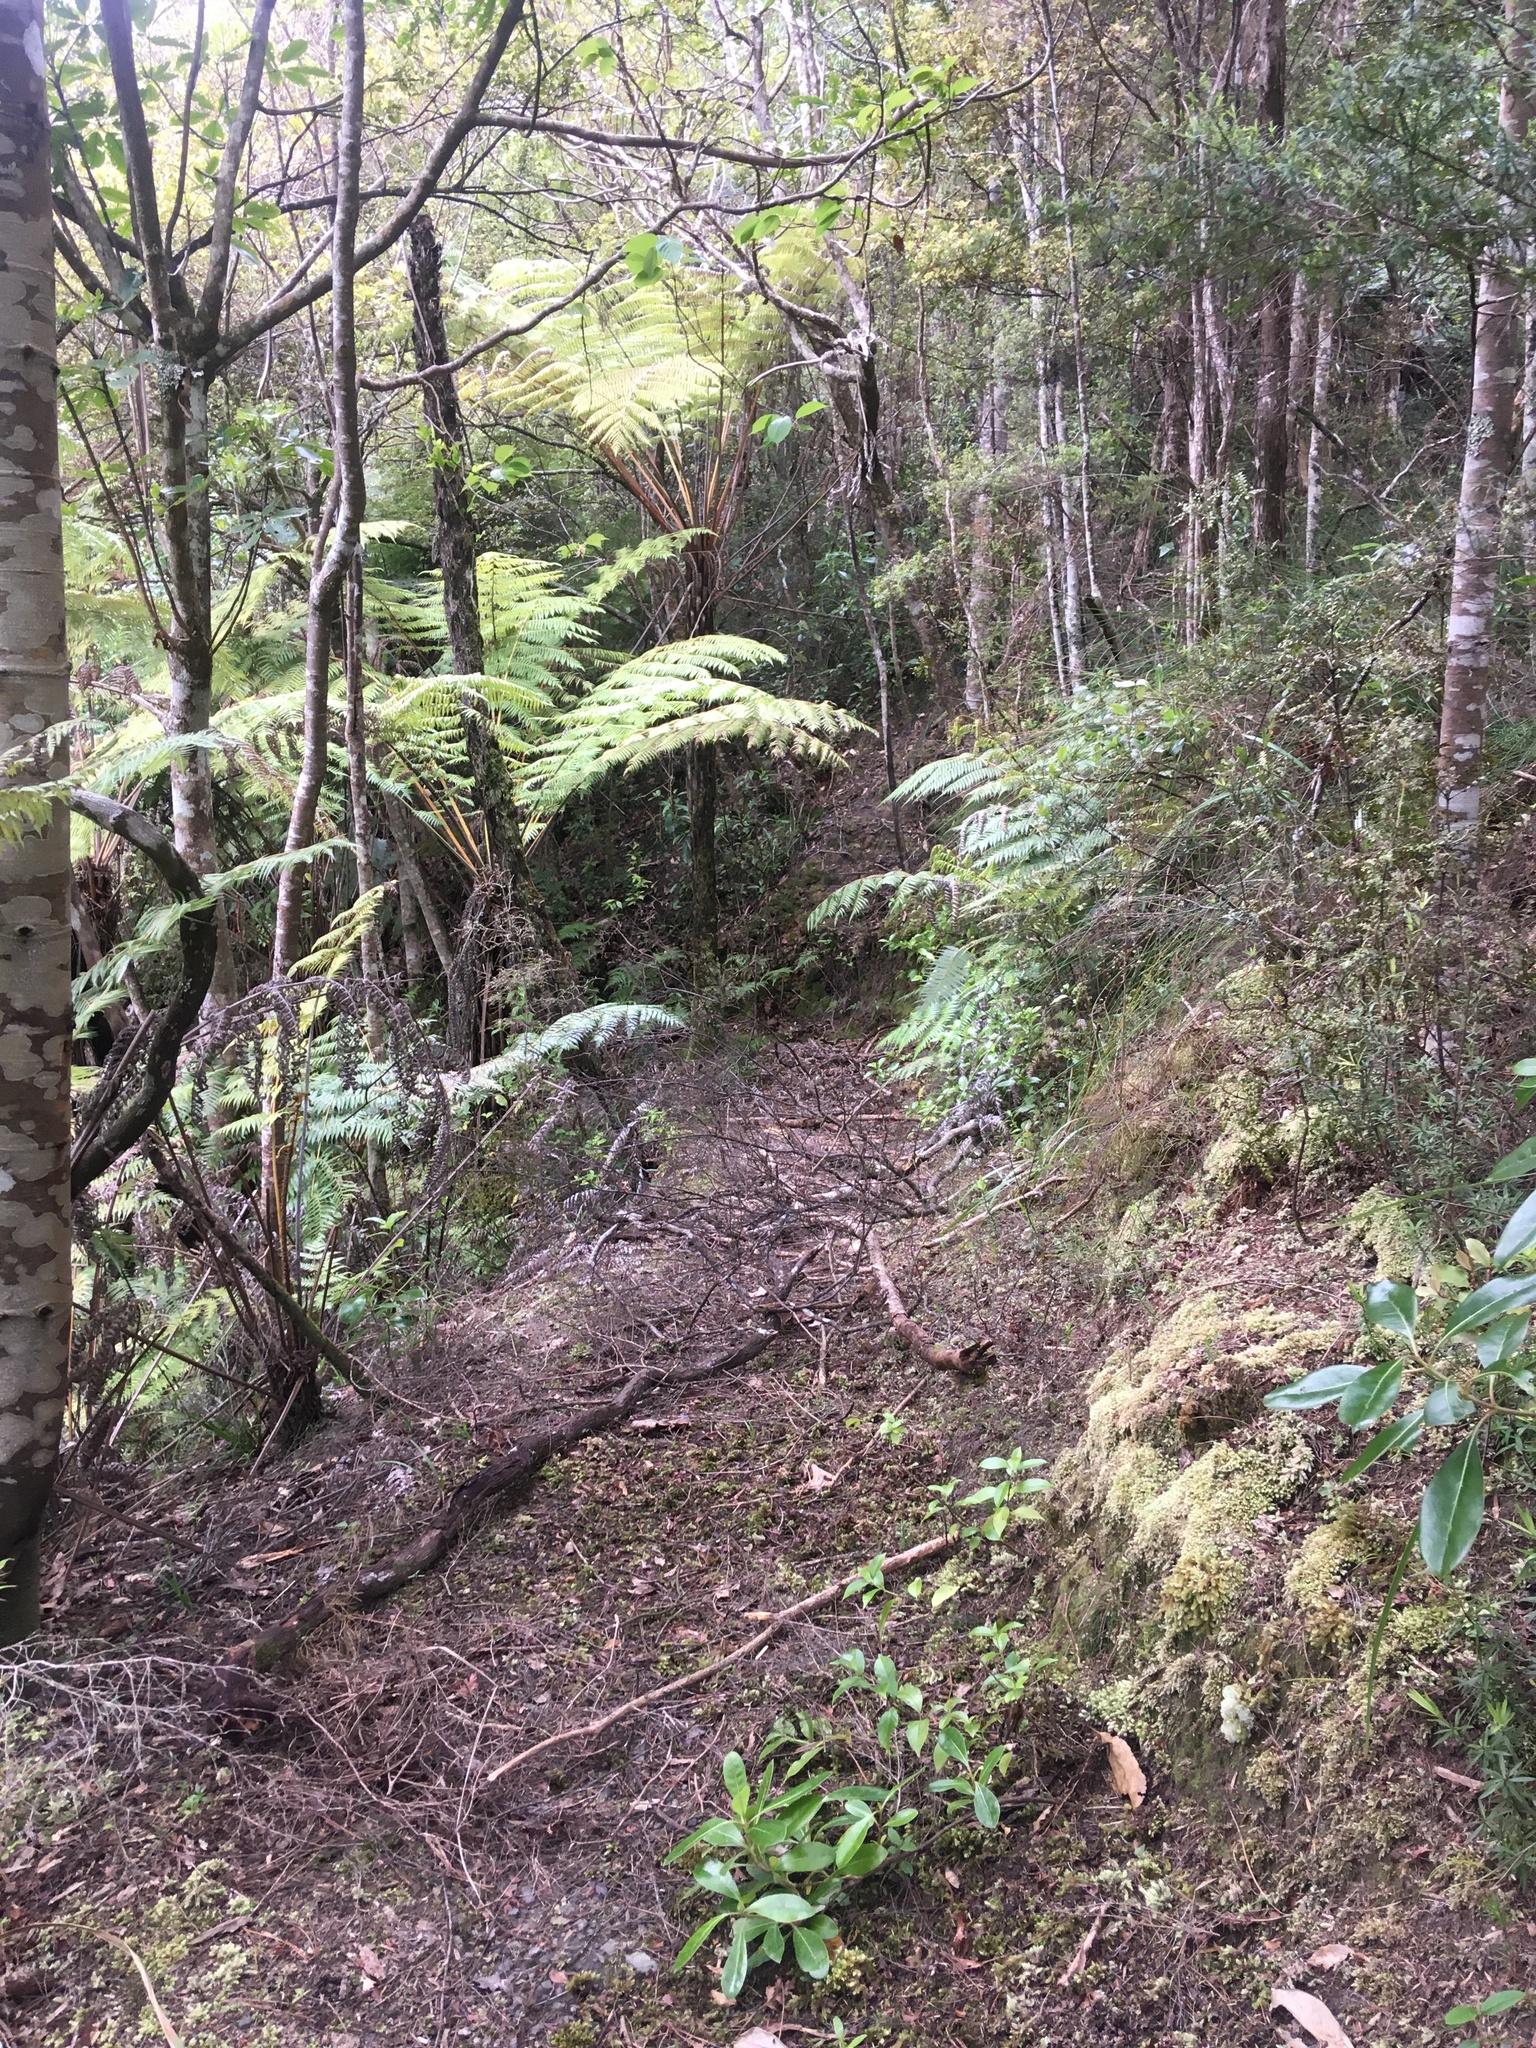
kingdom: Plantae
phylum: Tracheophyta
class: Polypodiopsida
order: Cyatheales
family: Cyatheaceae
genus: Alsophila
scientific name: Alsophila dealbata
